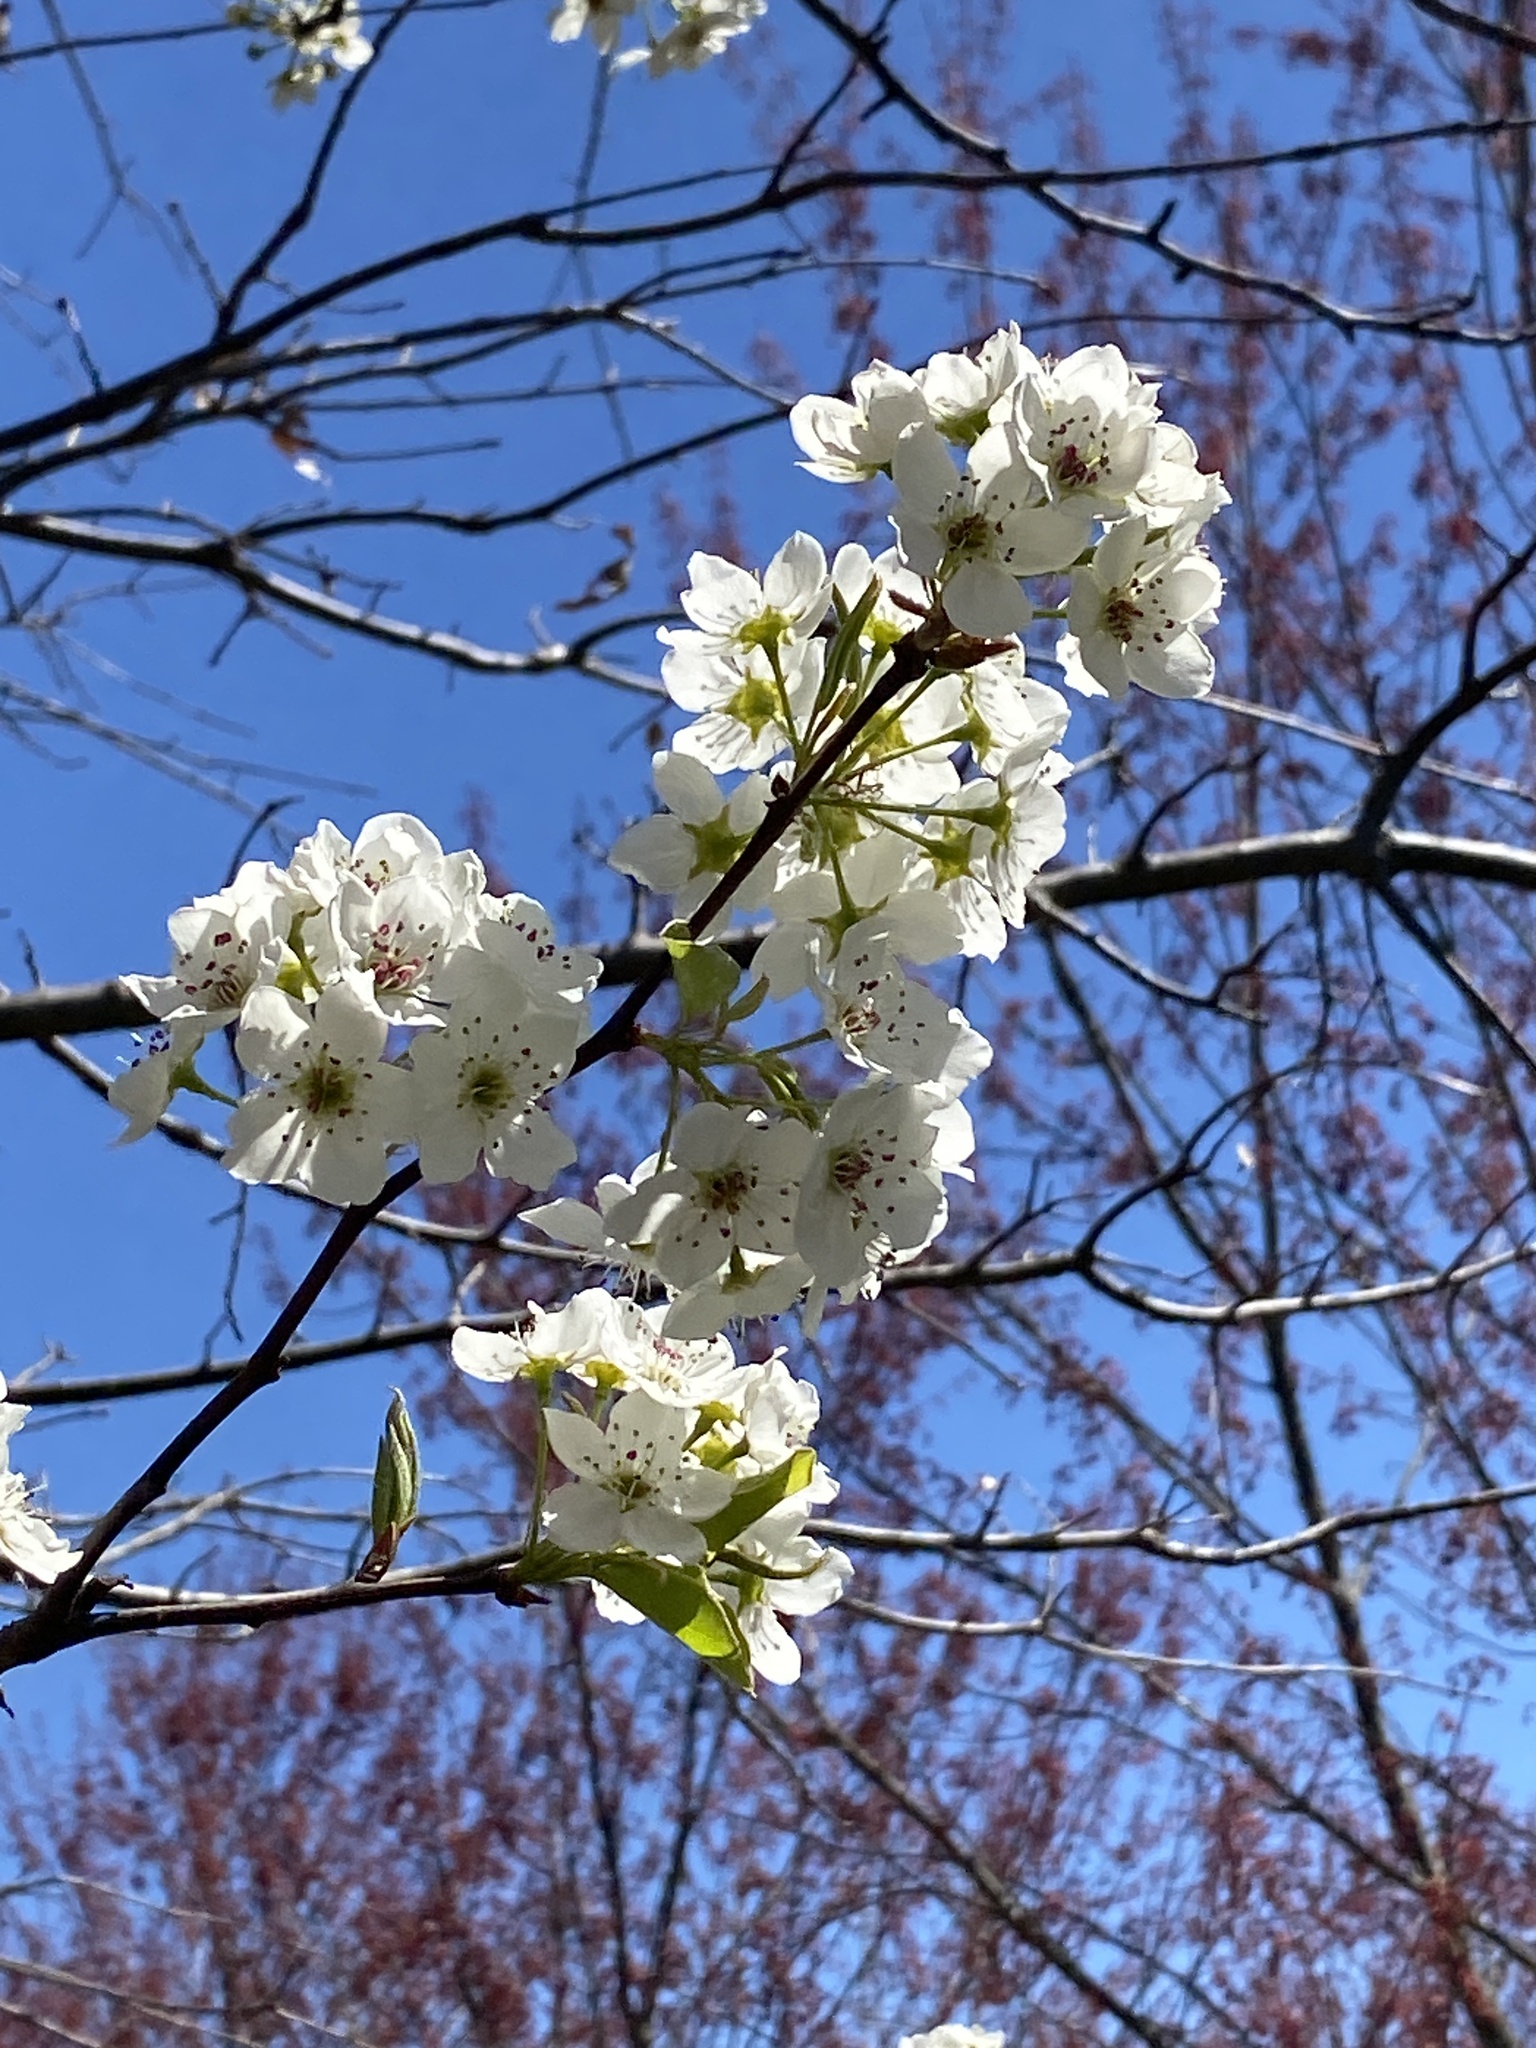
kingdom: Plantae
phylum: Tracheophyta
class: Magnoliopsida
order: Rosales
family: Rosaceae
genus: Pyrus
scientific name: Pyrus calleryana
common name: Callery pear
